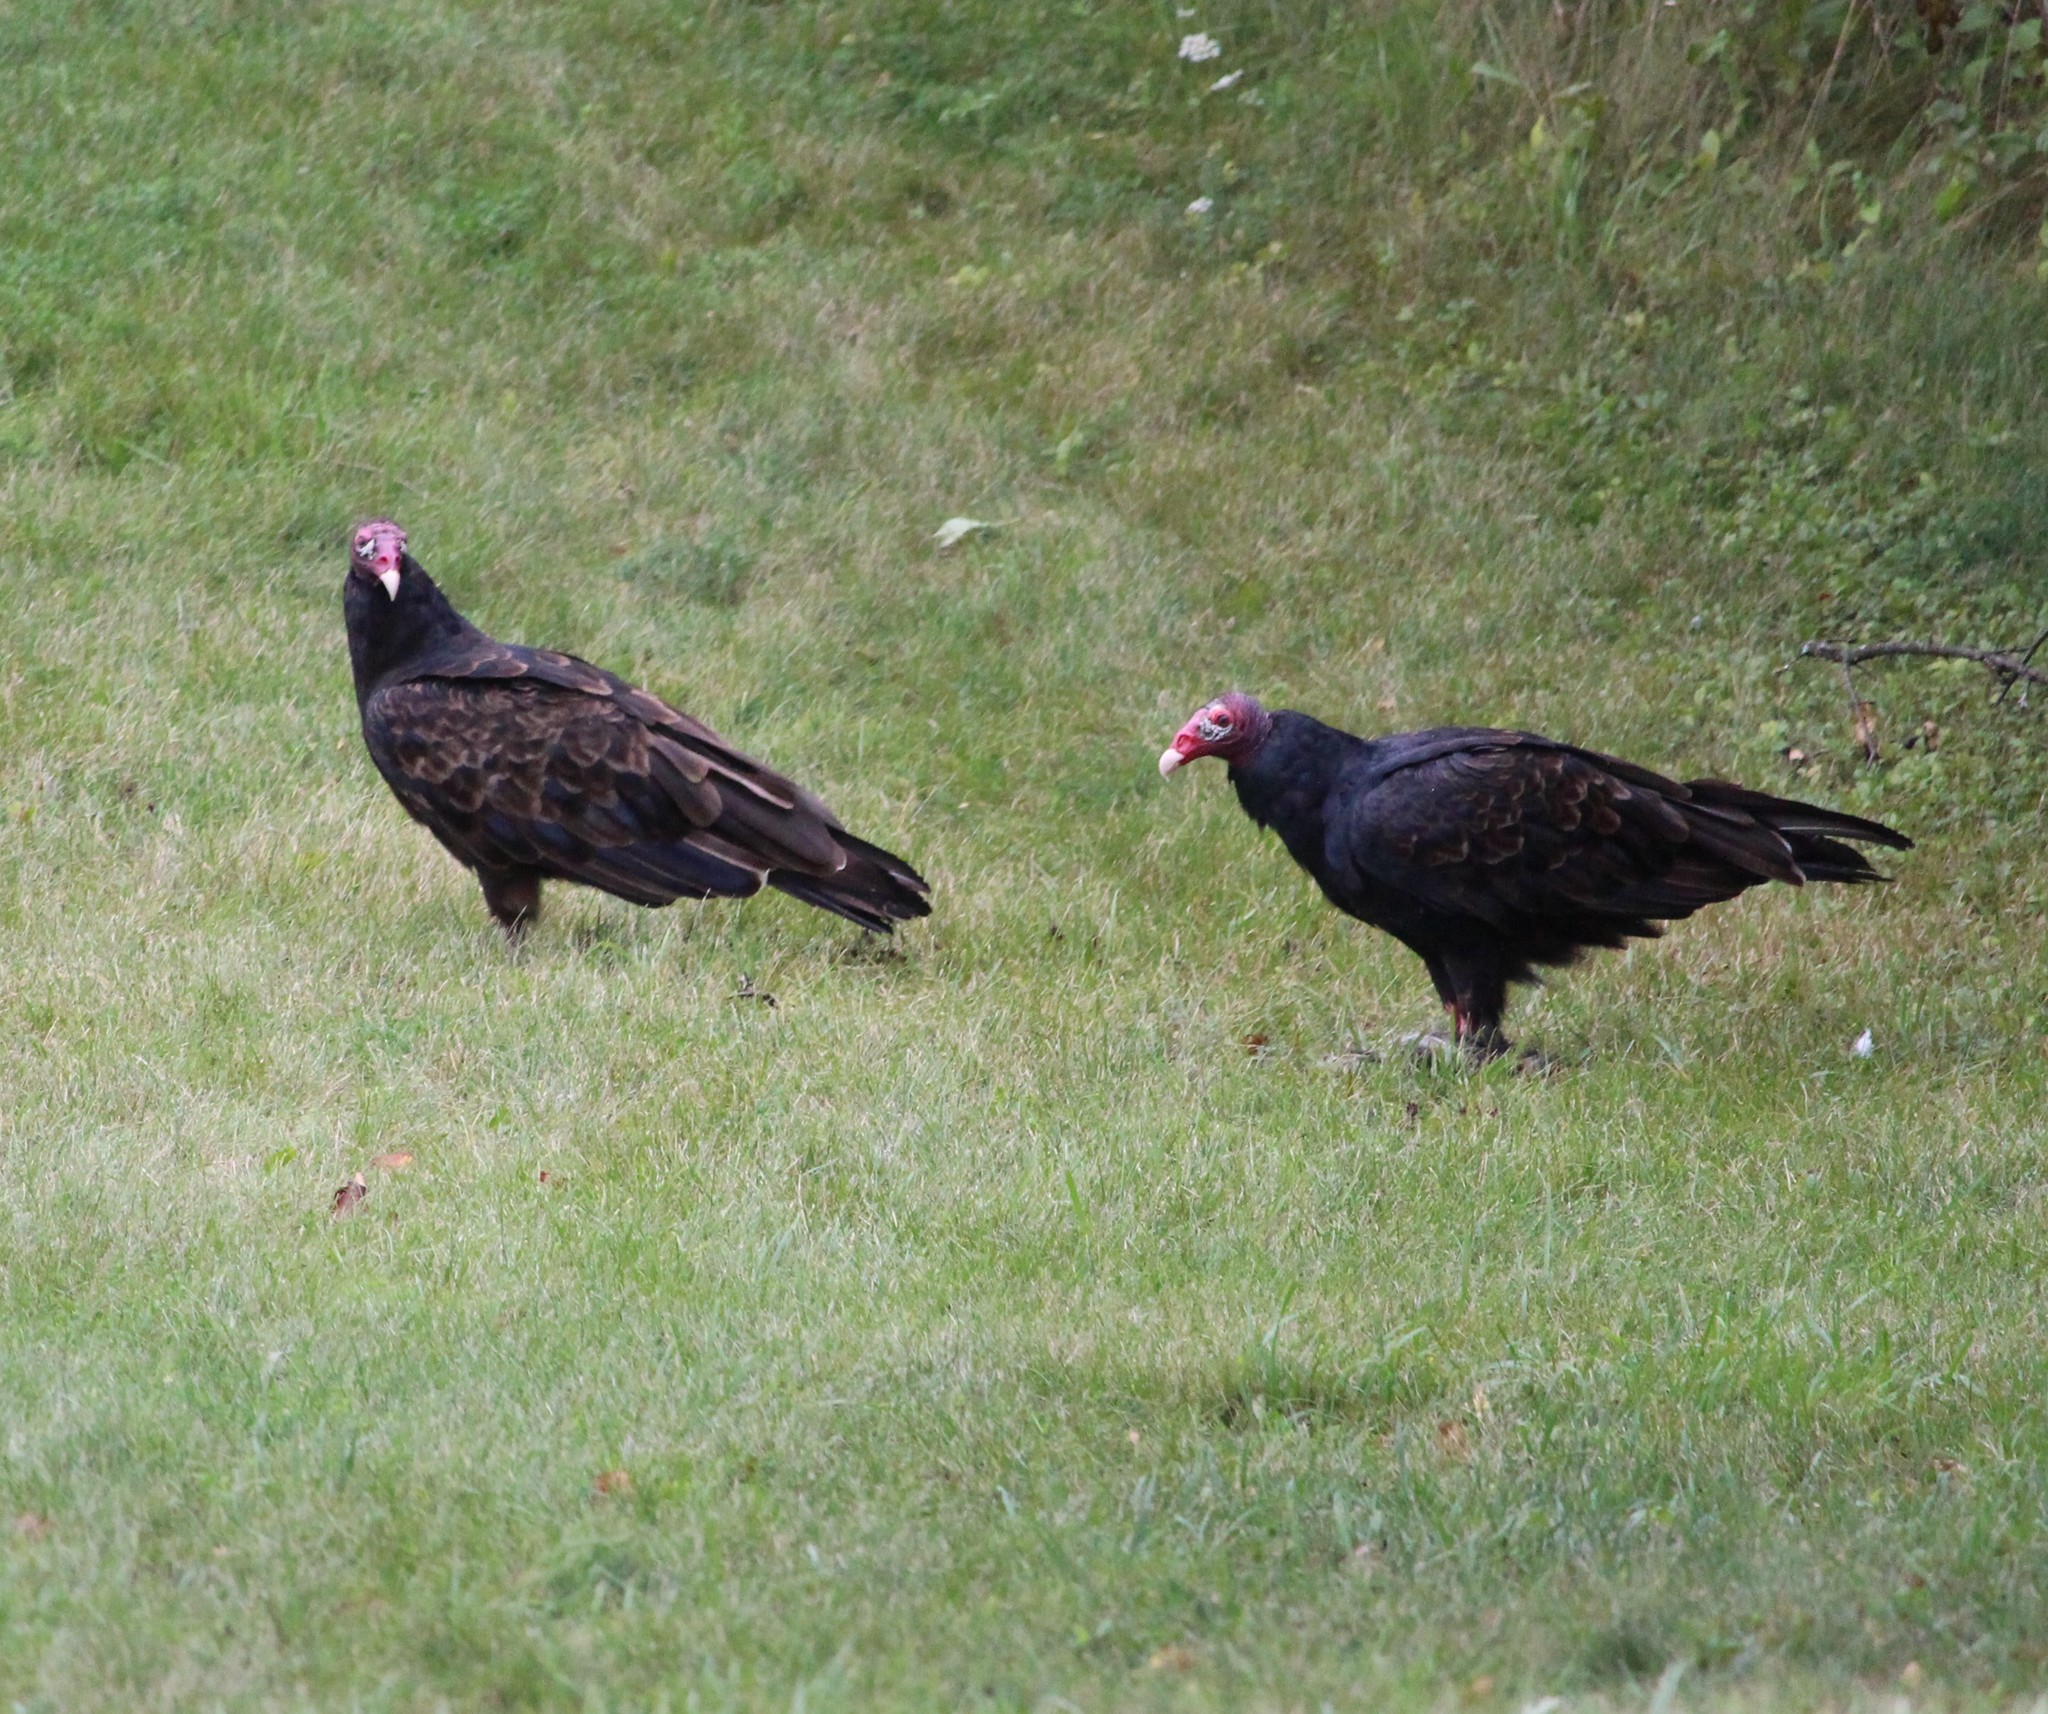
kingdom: Animalia
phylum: Chordata
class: Aves
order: Accipitriformes
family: Cathartidae
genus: Cathartes
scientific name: Cathartes aura
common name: Turkey vulture
